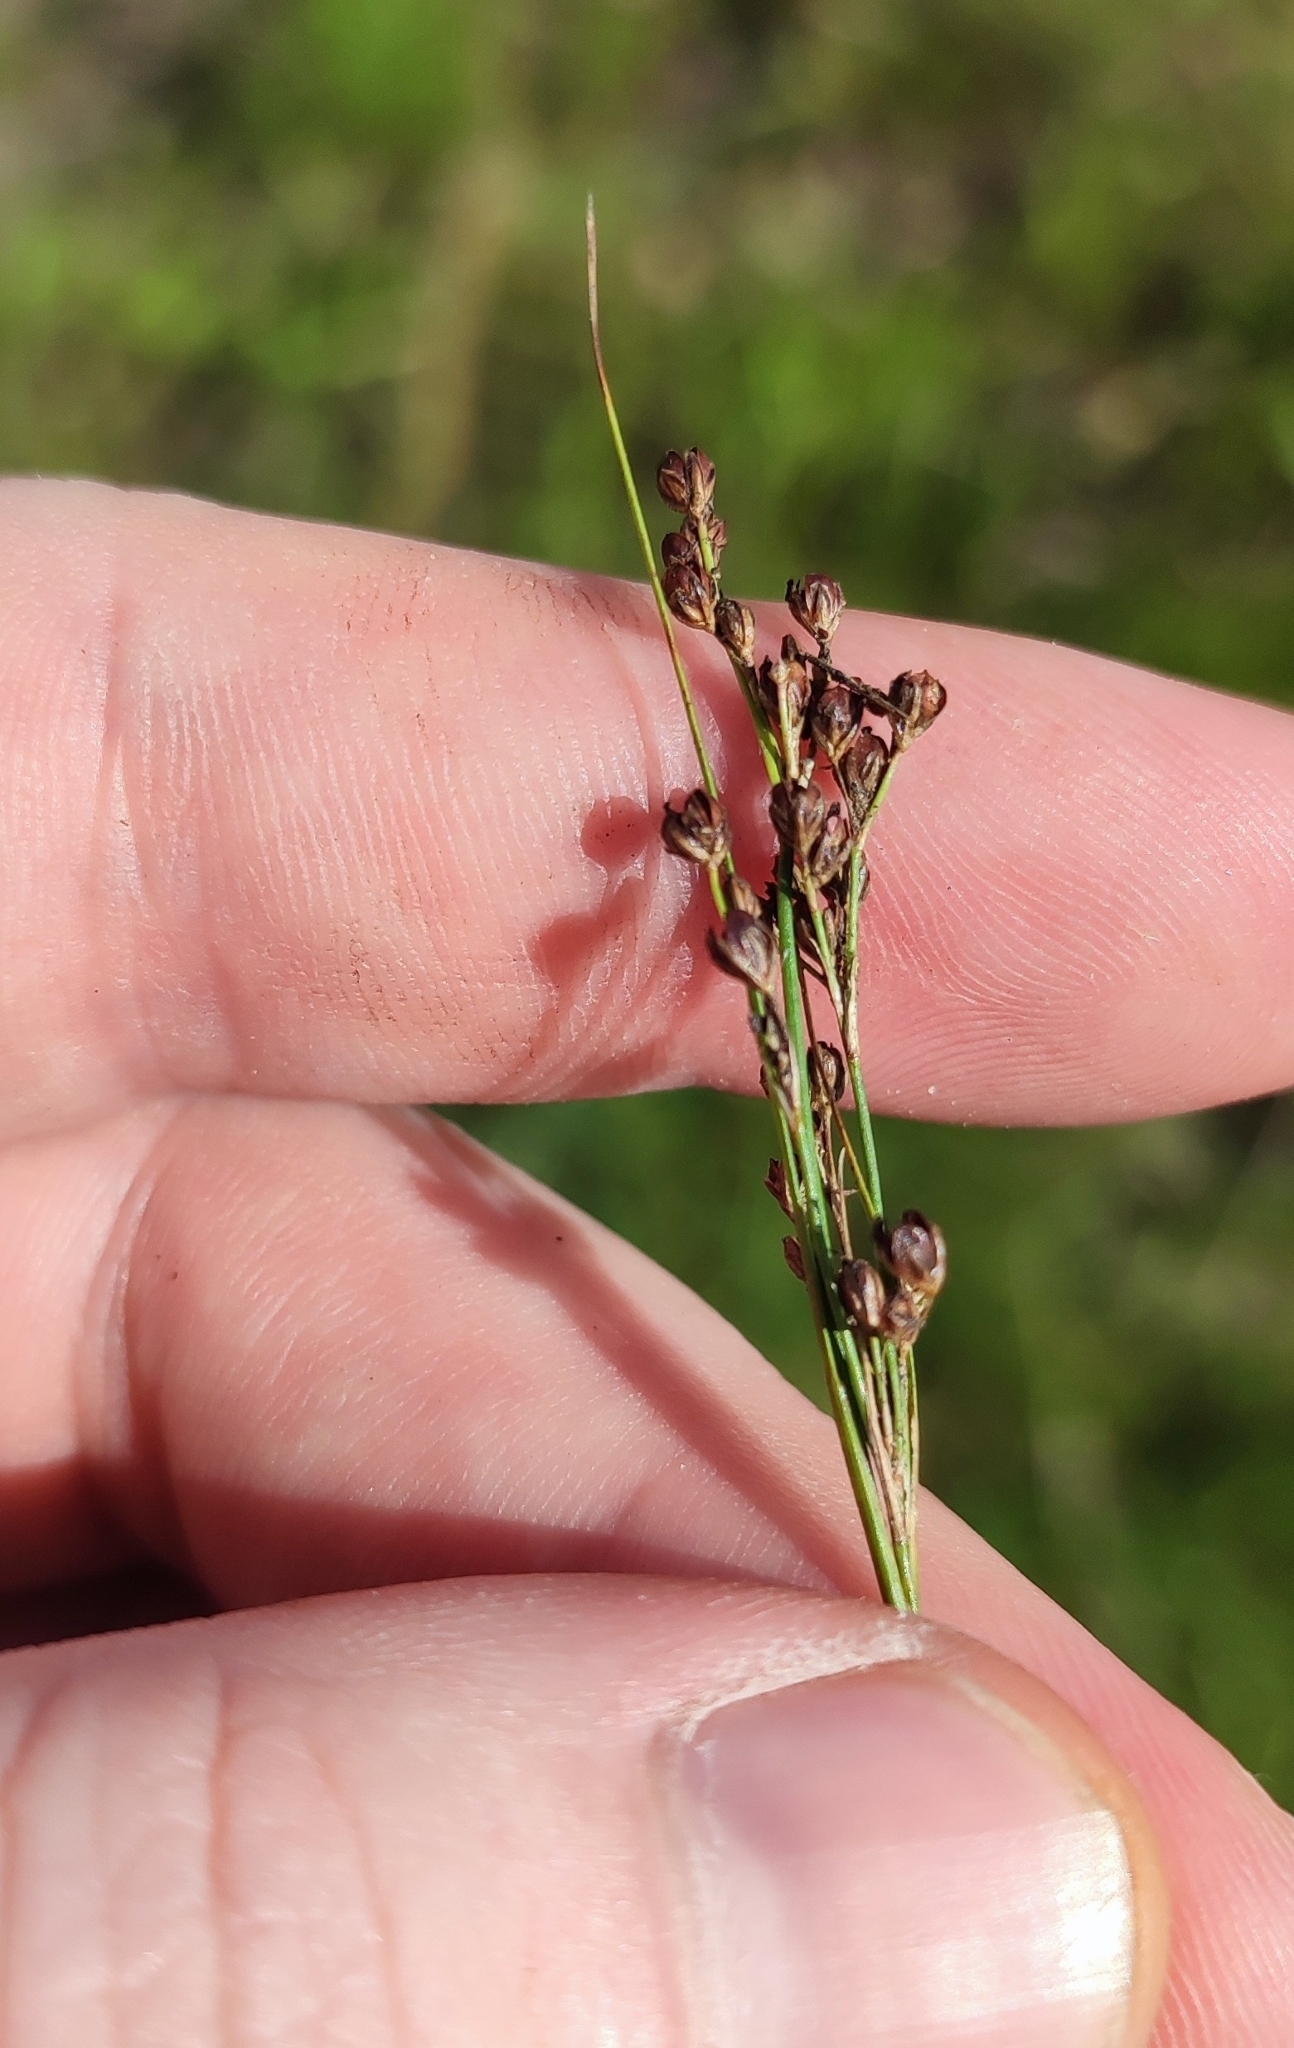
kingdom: Plantae
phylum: Tracheophyta
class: Liliopsida
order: Poales
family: Juncaceae
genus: Juncus
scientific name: Juncus compressus
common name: Round-fruited rush
